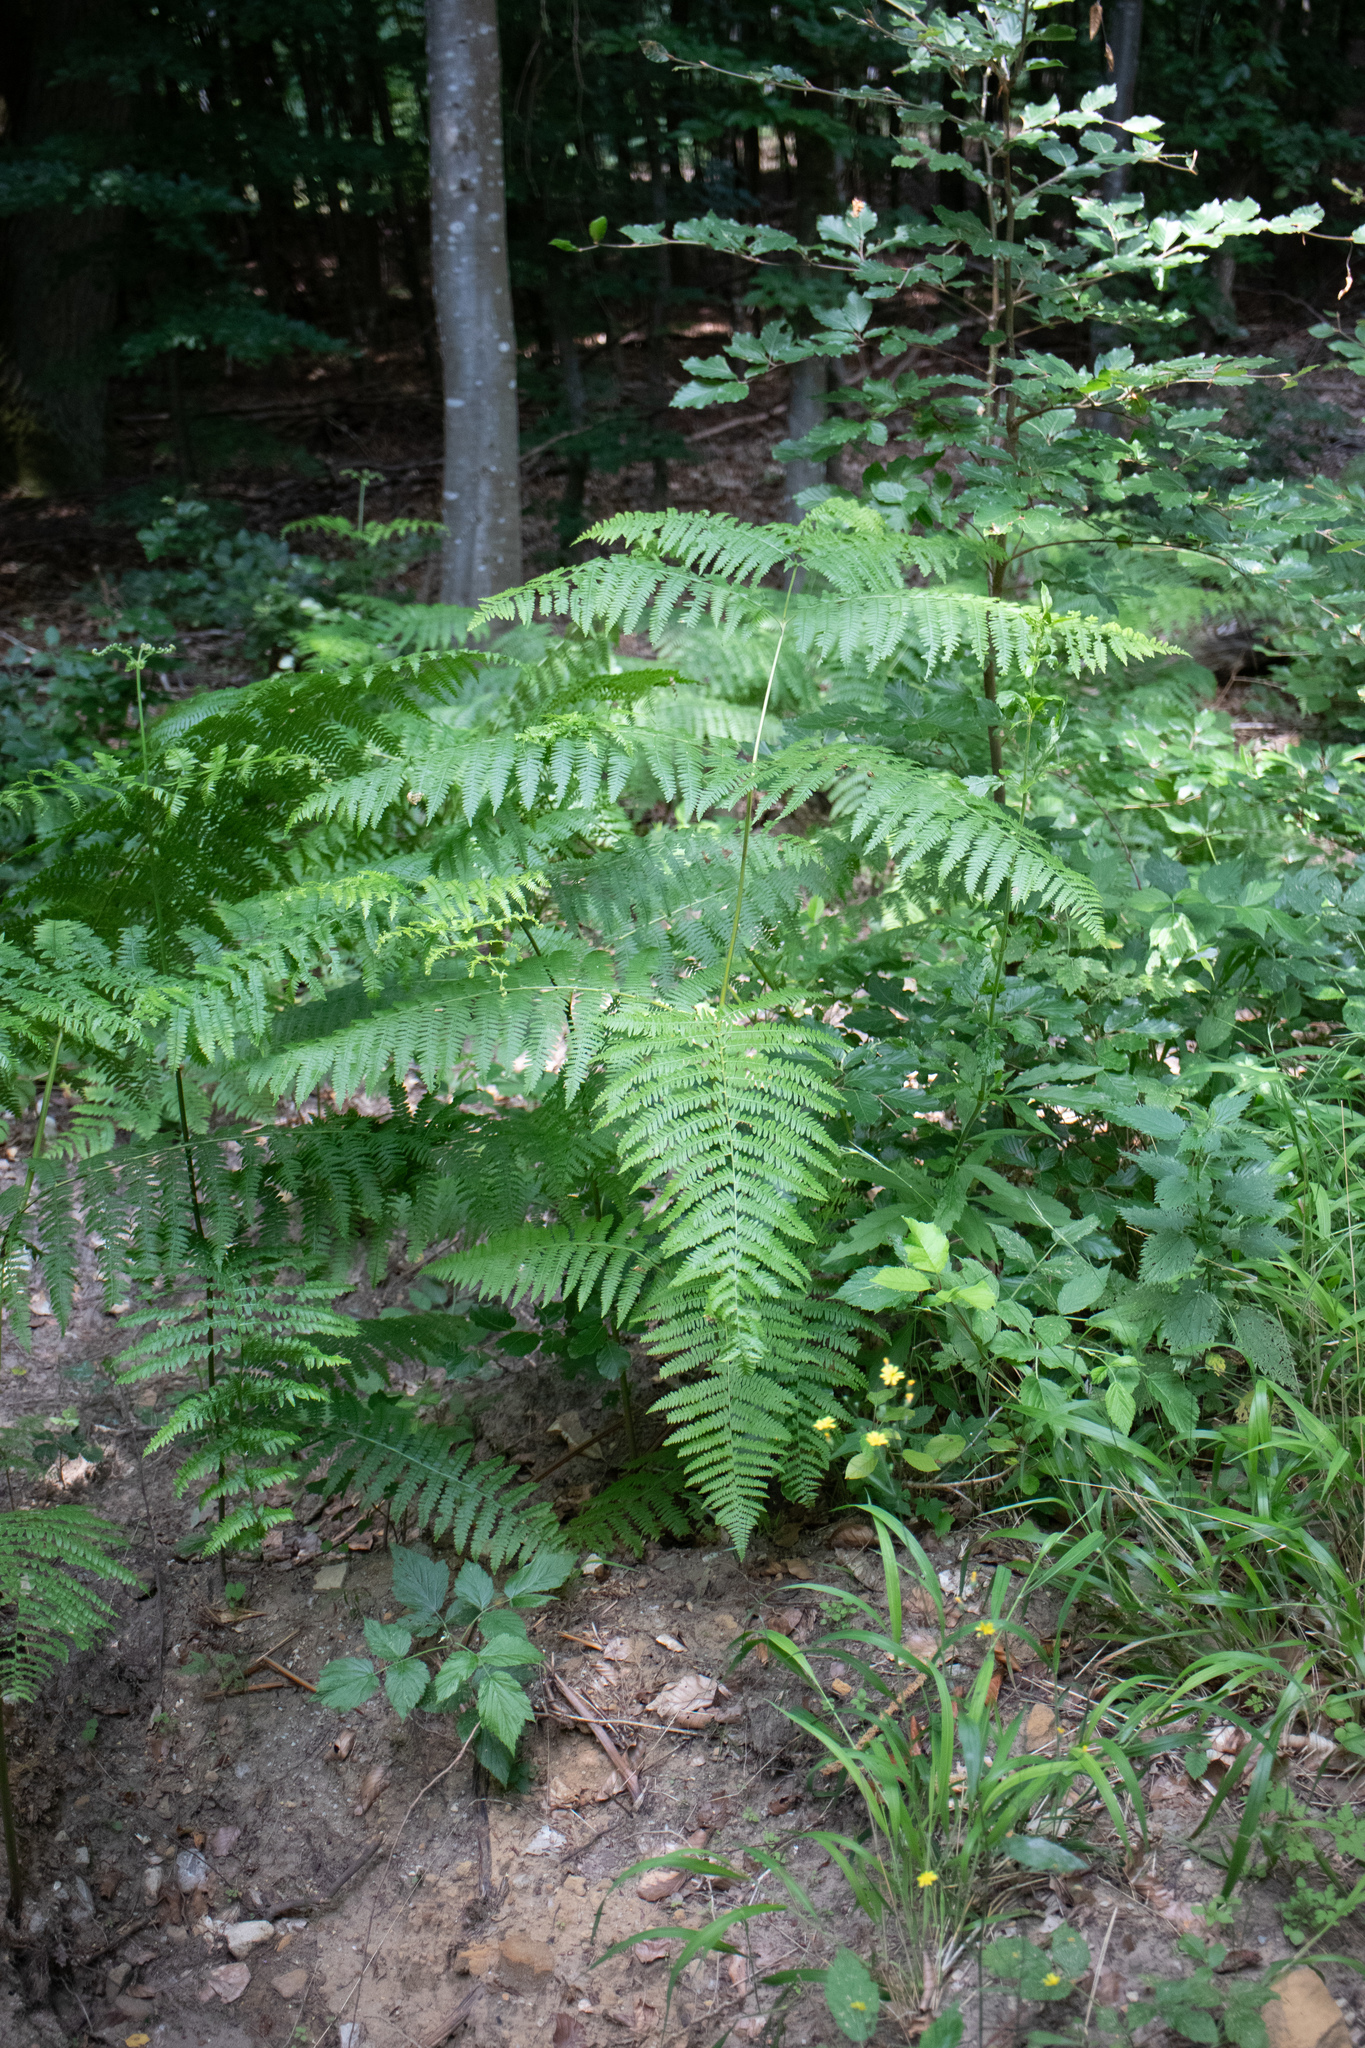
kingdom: Plantae
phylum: Tracheophyta
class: Polypodiopsida
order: Polypodiales
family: Dennstaedtiaceae
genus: Pteridium
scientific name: Pteridium aquilinum
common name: Bracken
